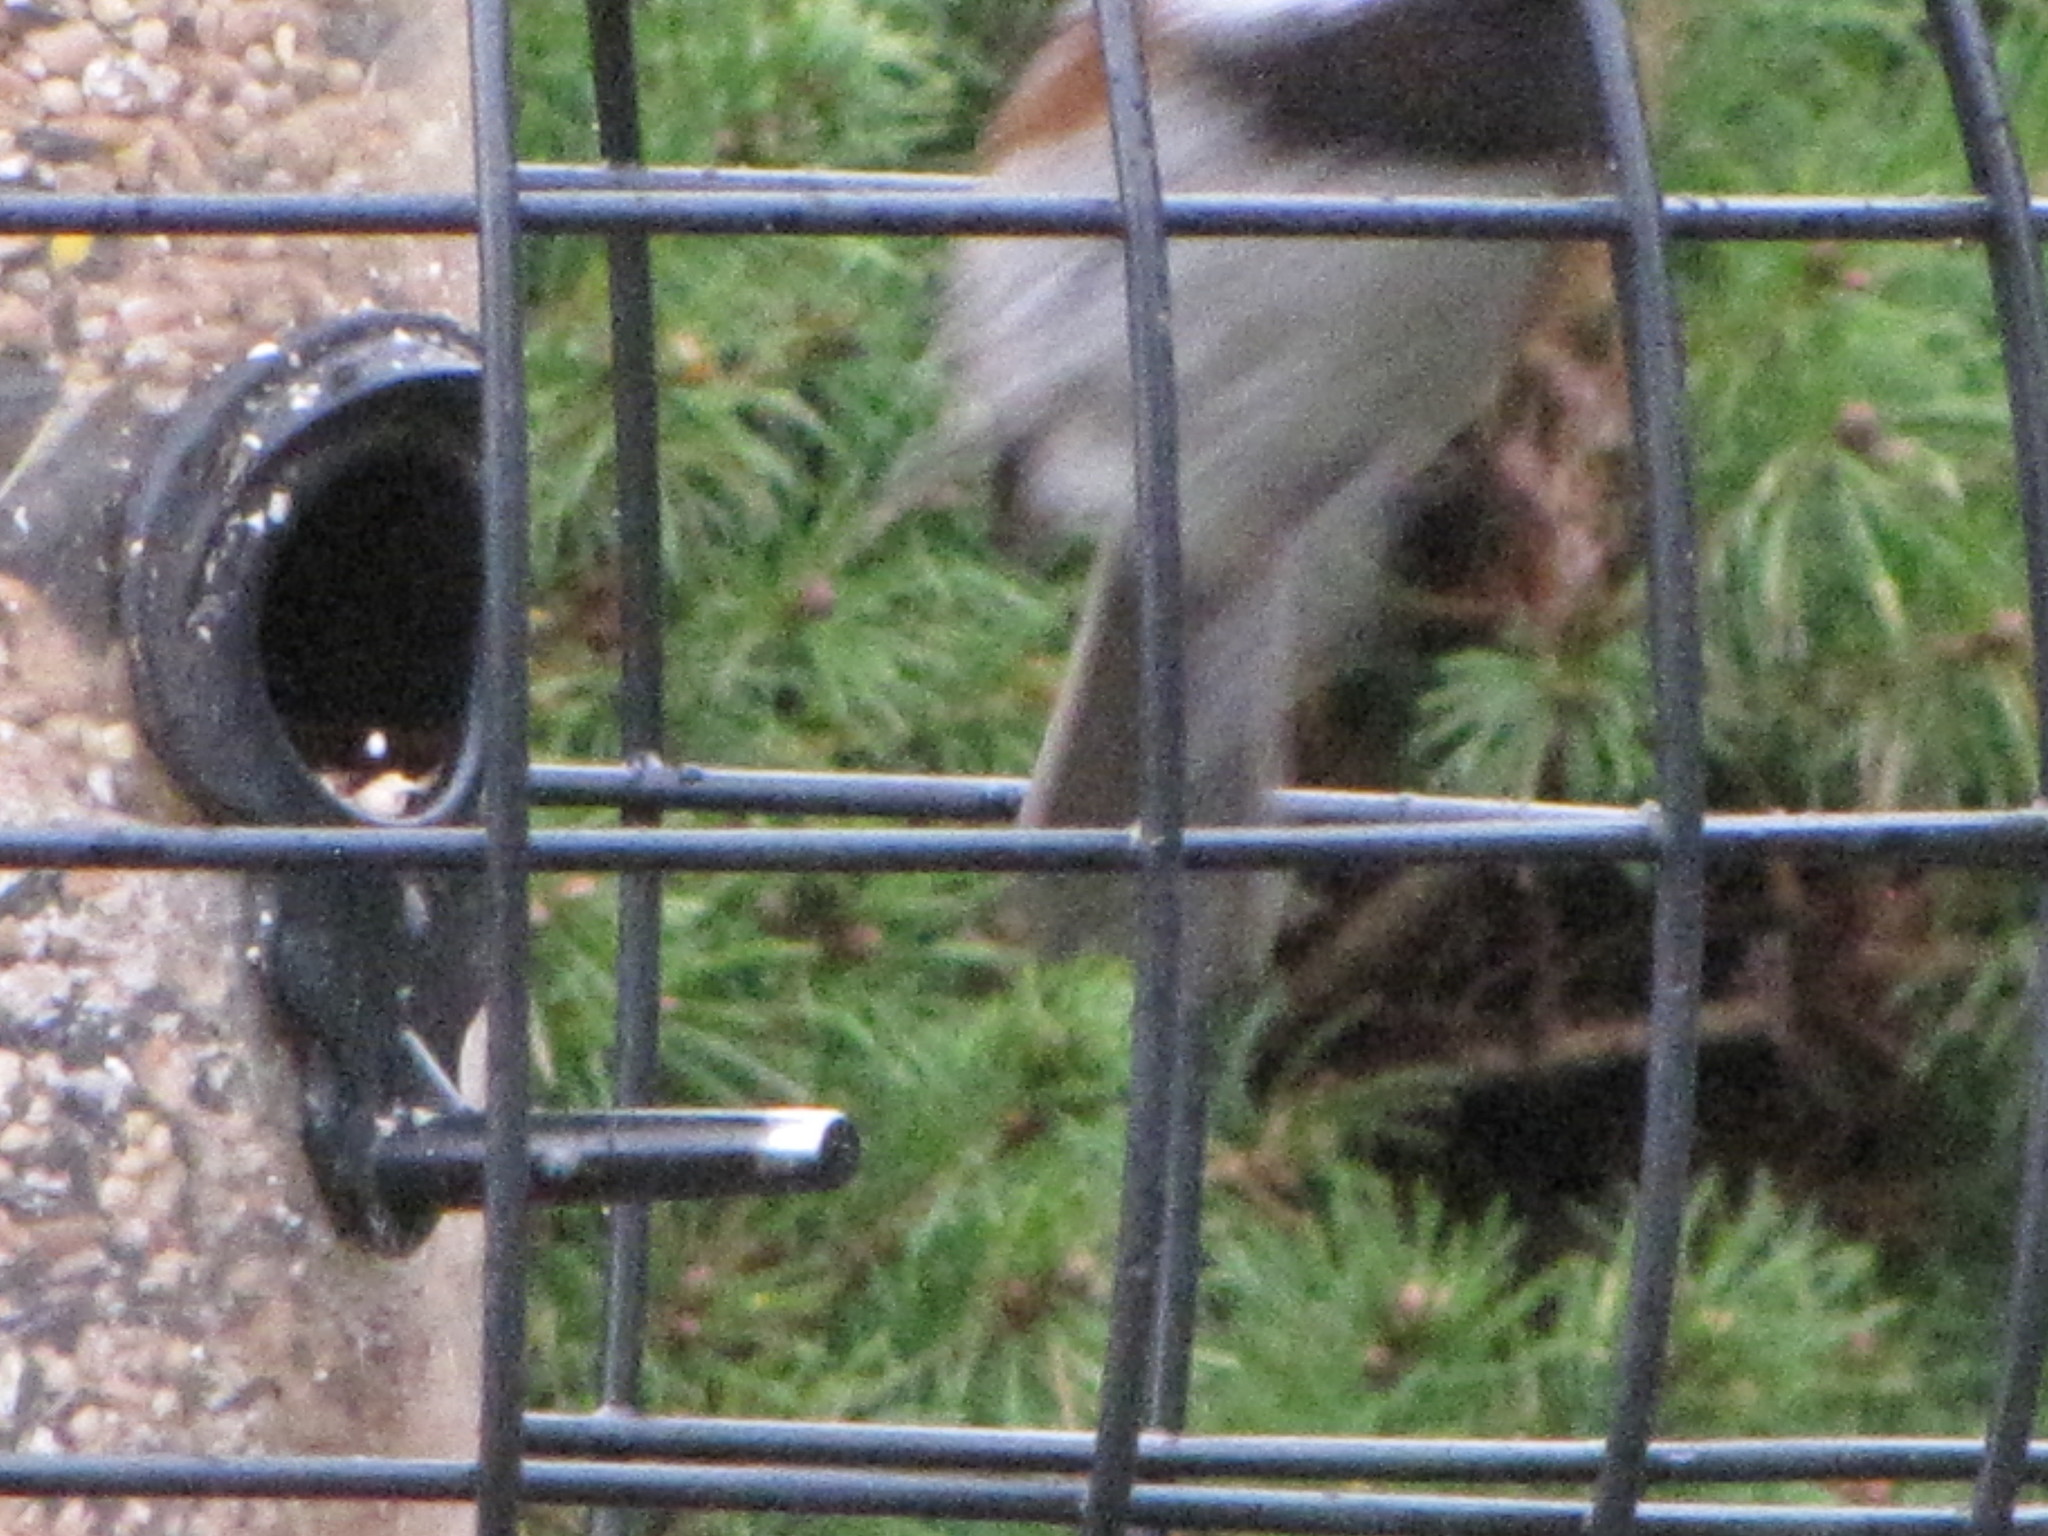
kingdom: Animalia
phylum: Chordata
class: Aves
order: Passeriformes
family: Passerellidae
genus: Junco
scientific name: Junco hyemalis
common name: Dark-eyed junco
